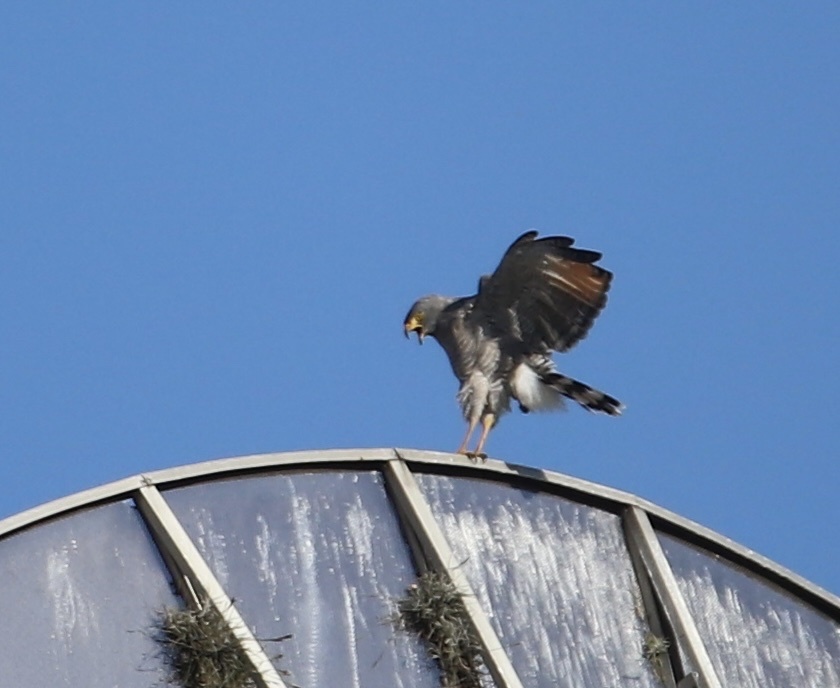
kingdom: Animalia
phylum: Chordata
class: Aves
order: Accipitriformes
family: Accipitridae
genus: Rupornis
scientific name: Rupornis magnirostris
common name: Roadside hawk
